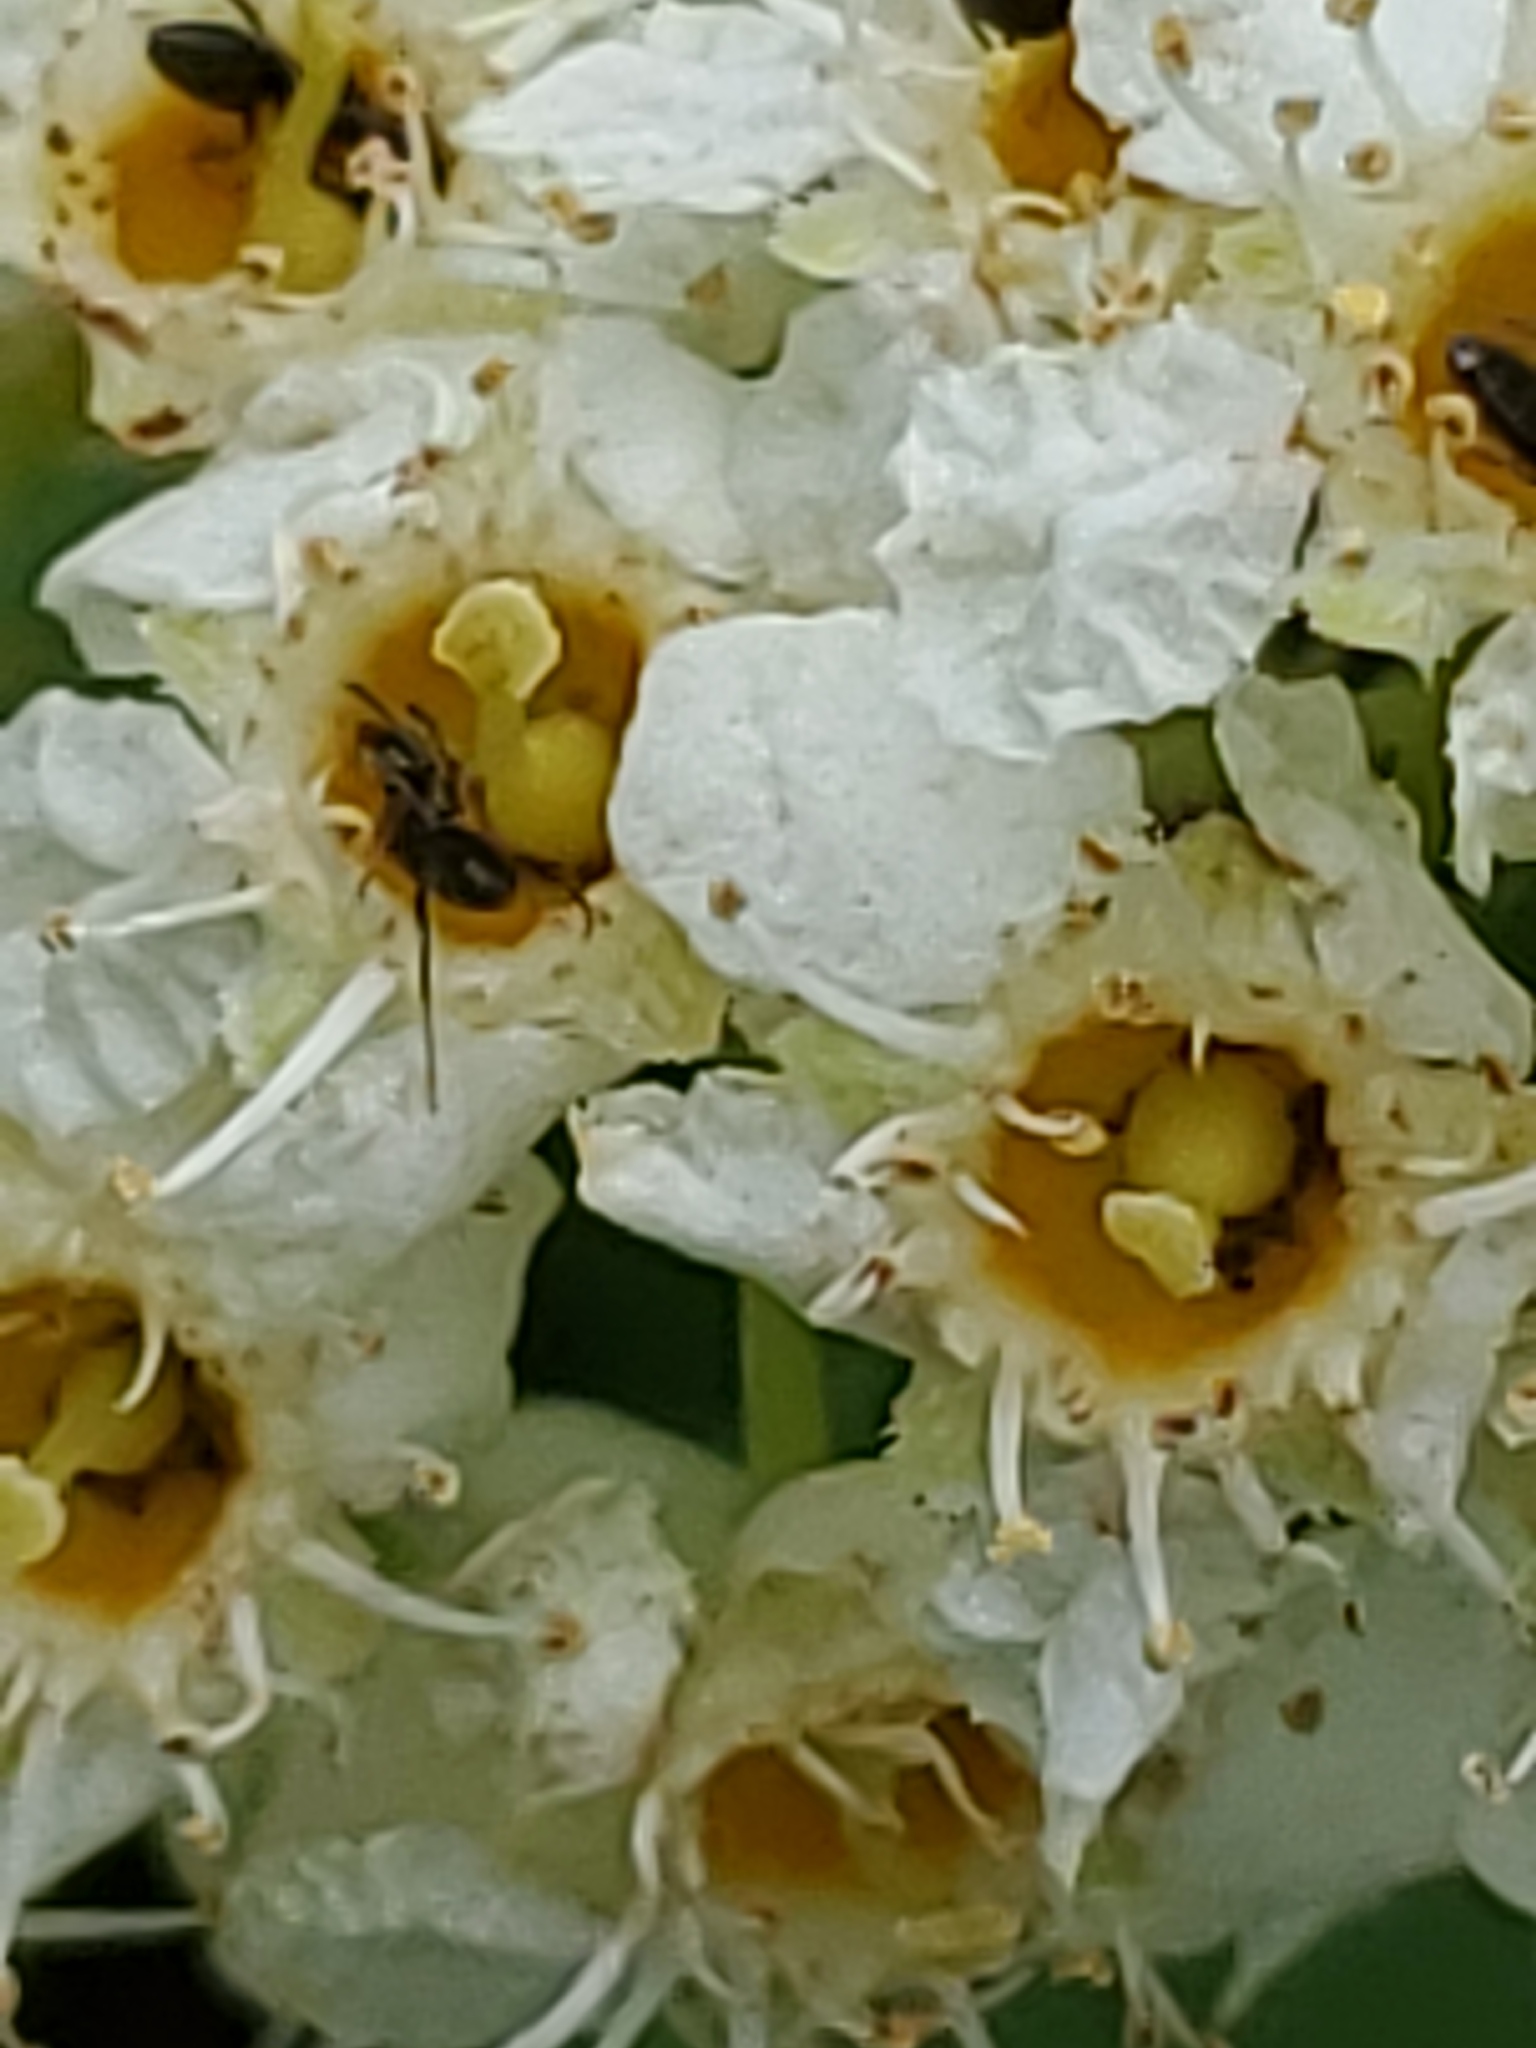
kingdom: Plantae
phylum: Tracheophyta
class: Magnoliopsida
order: Rosales
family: Rosaceae
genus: Prunus
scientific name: Prunus virginiana
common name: Chokecherry
